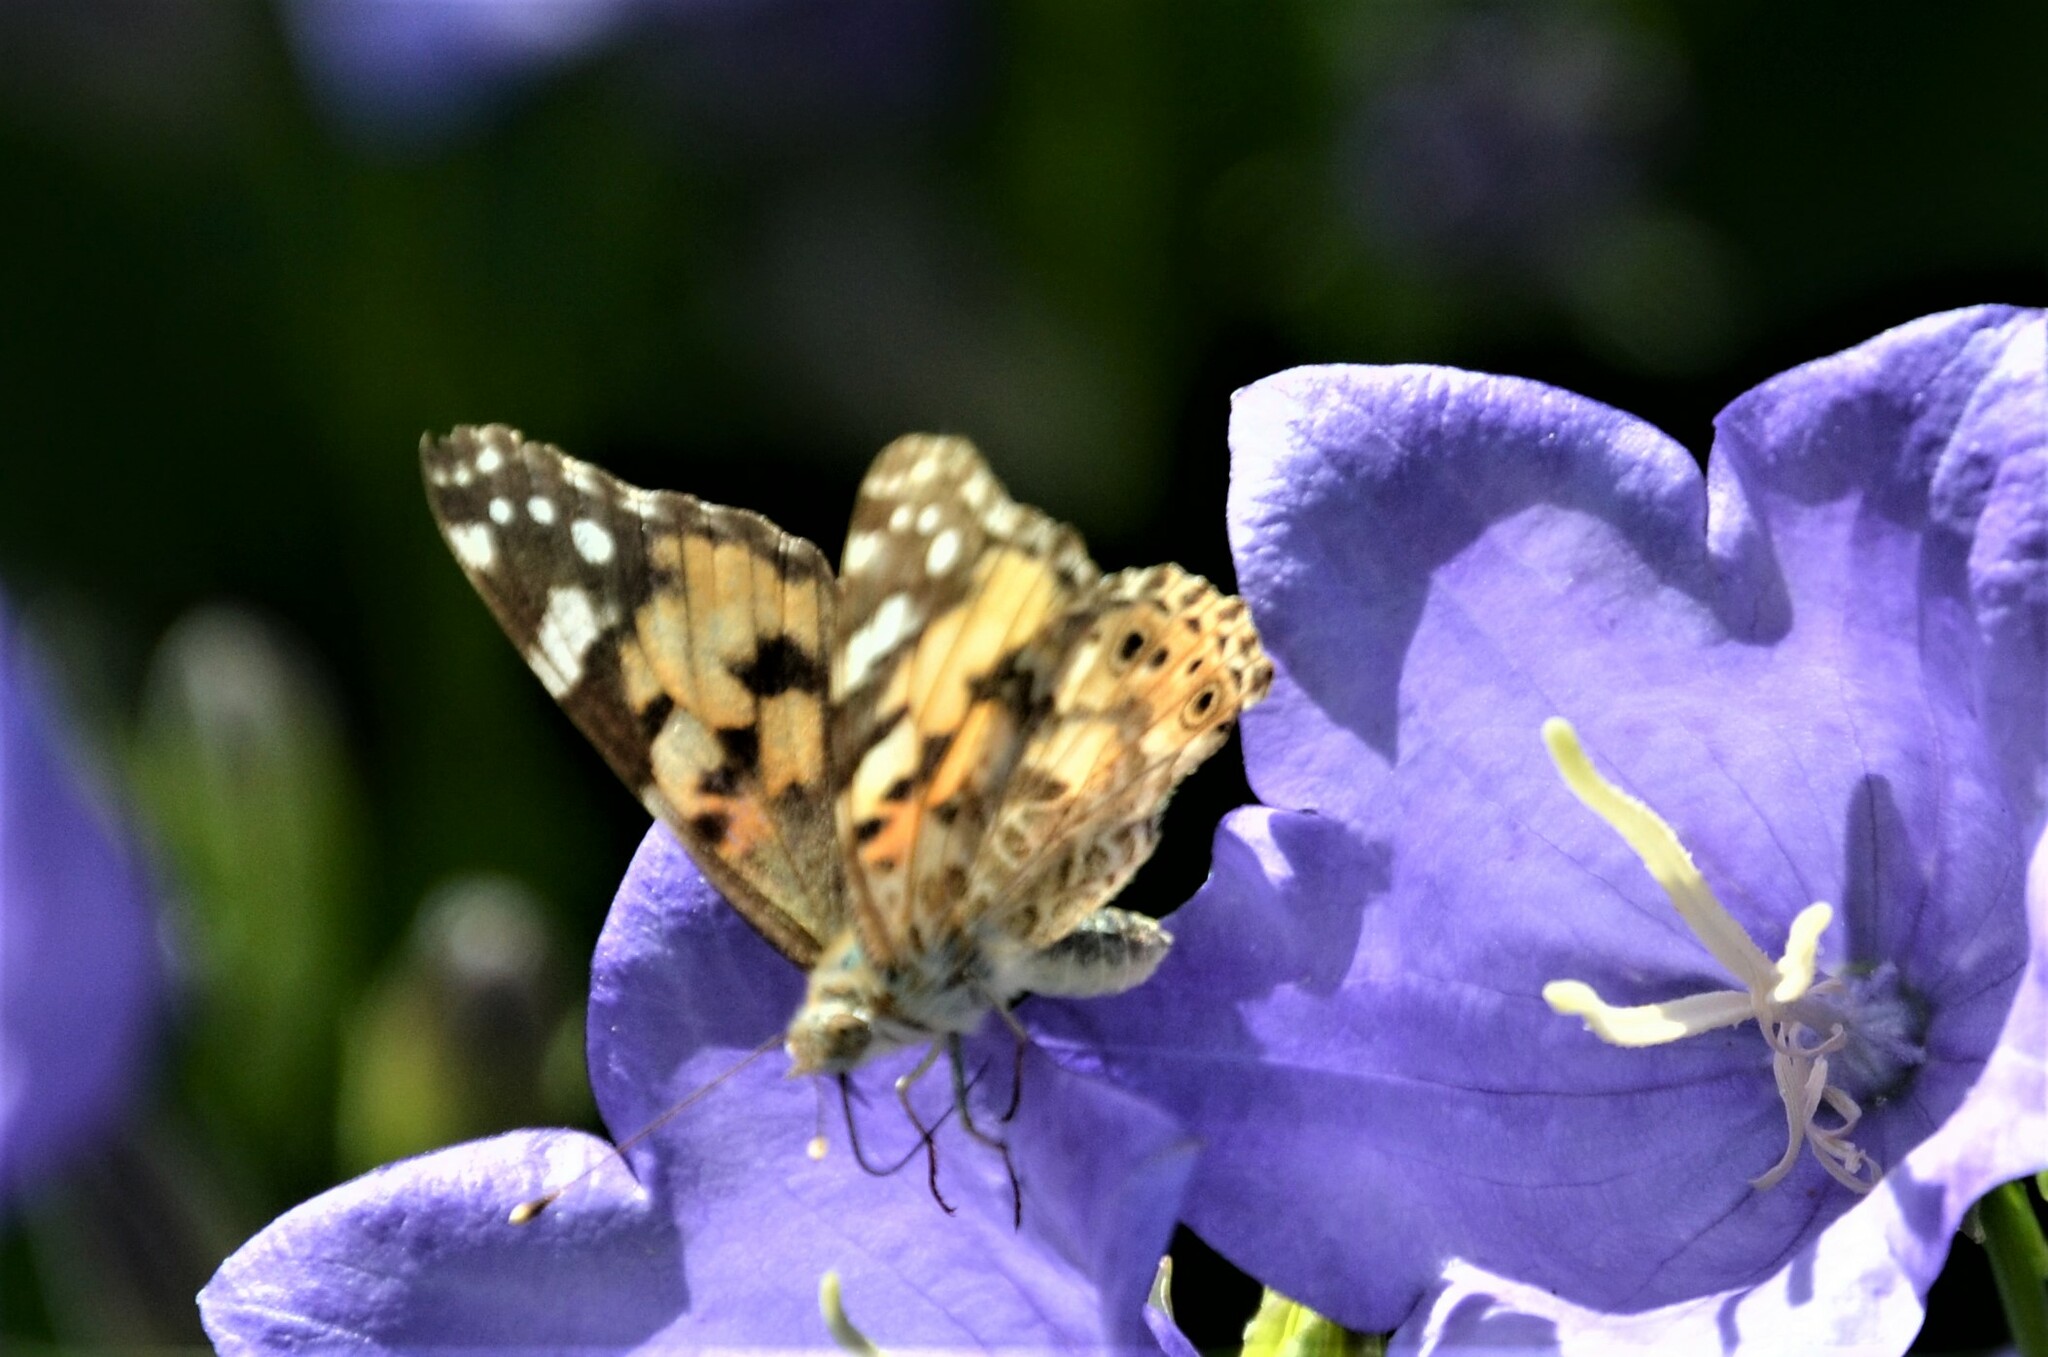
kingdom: Animalia
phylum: Arthropoda
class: Insecta
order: Lepidoptera
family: Nymphalidae
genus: Vanessa
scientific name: Vanessa cardui
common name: Painted lady
